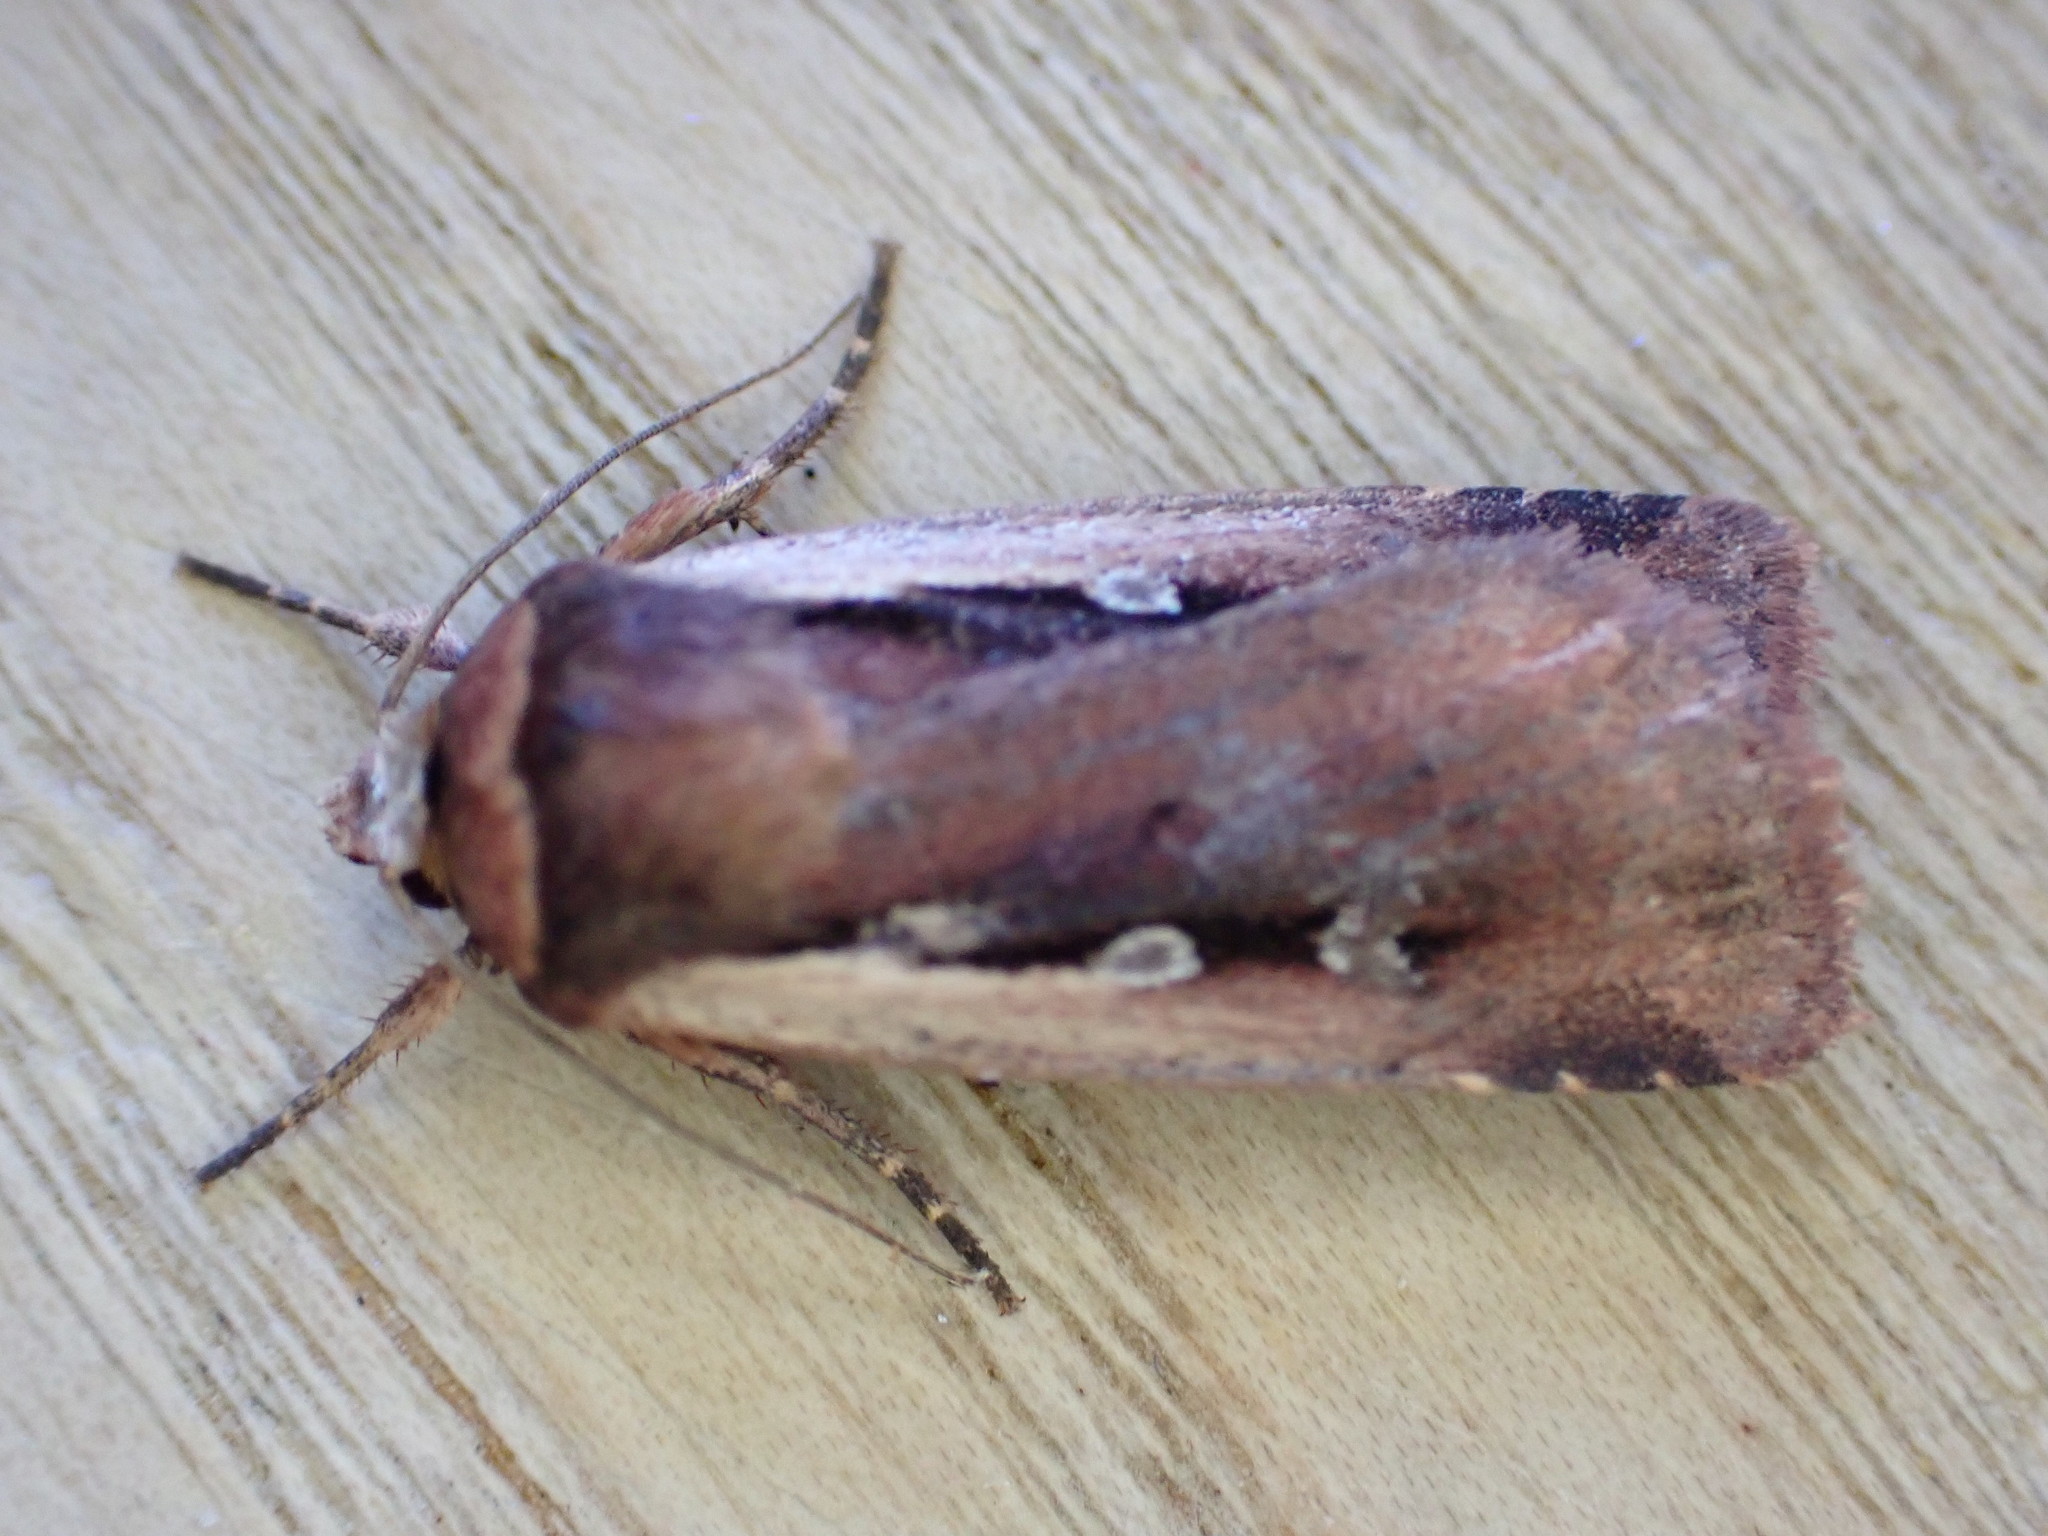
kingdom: Animalia
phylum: Arthropoda
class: Insecta
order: Lepidoptera
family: Noctuidae
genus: Ochropleura
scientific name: Ochropleura plecta
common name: Flame shoulder
